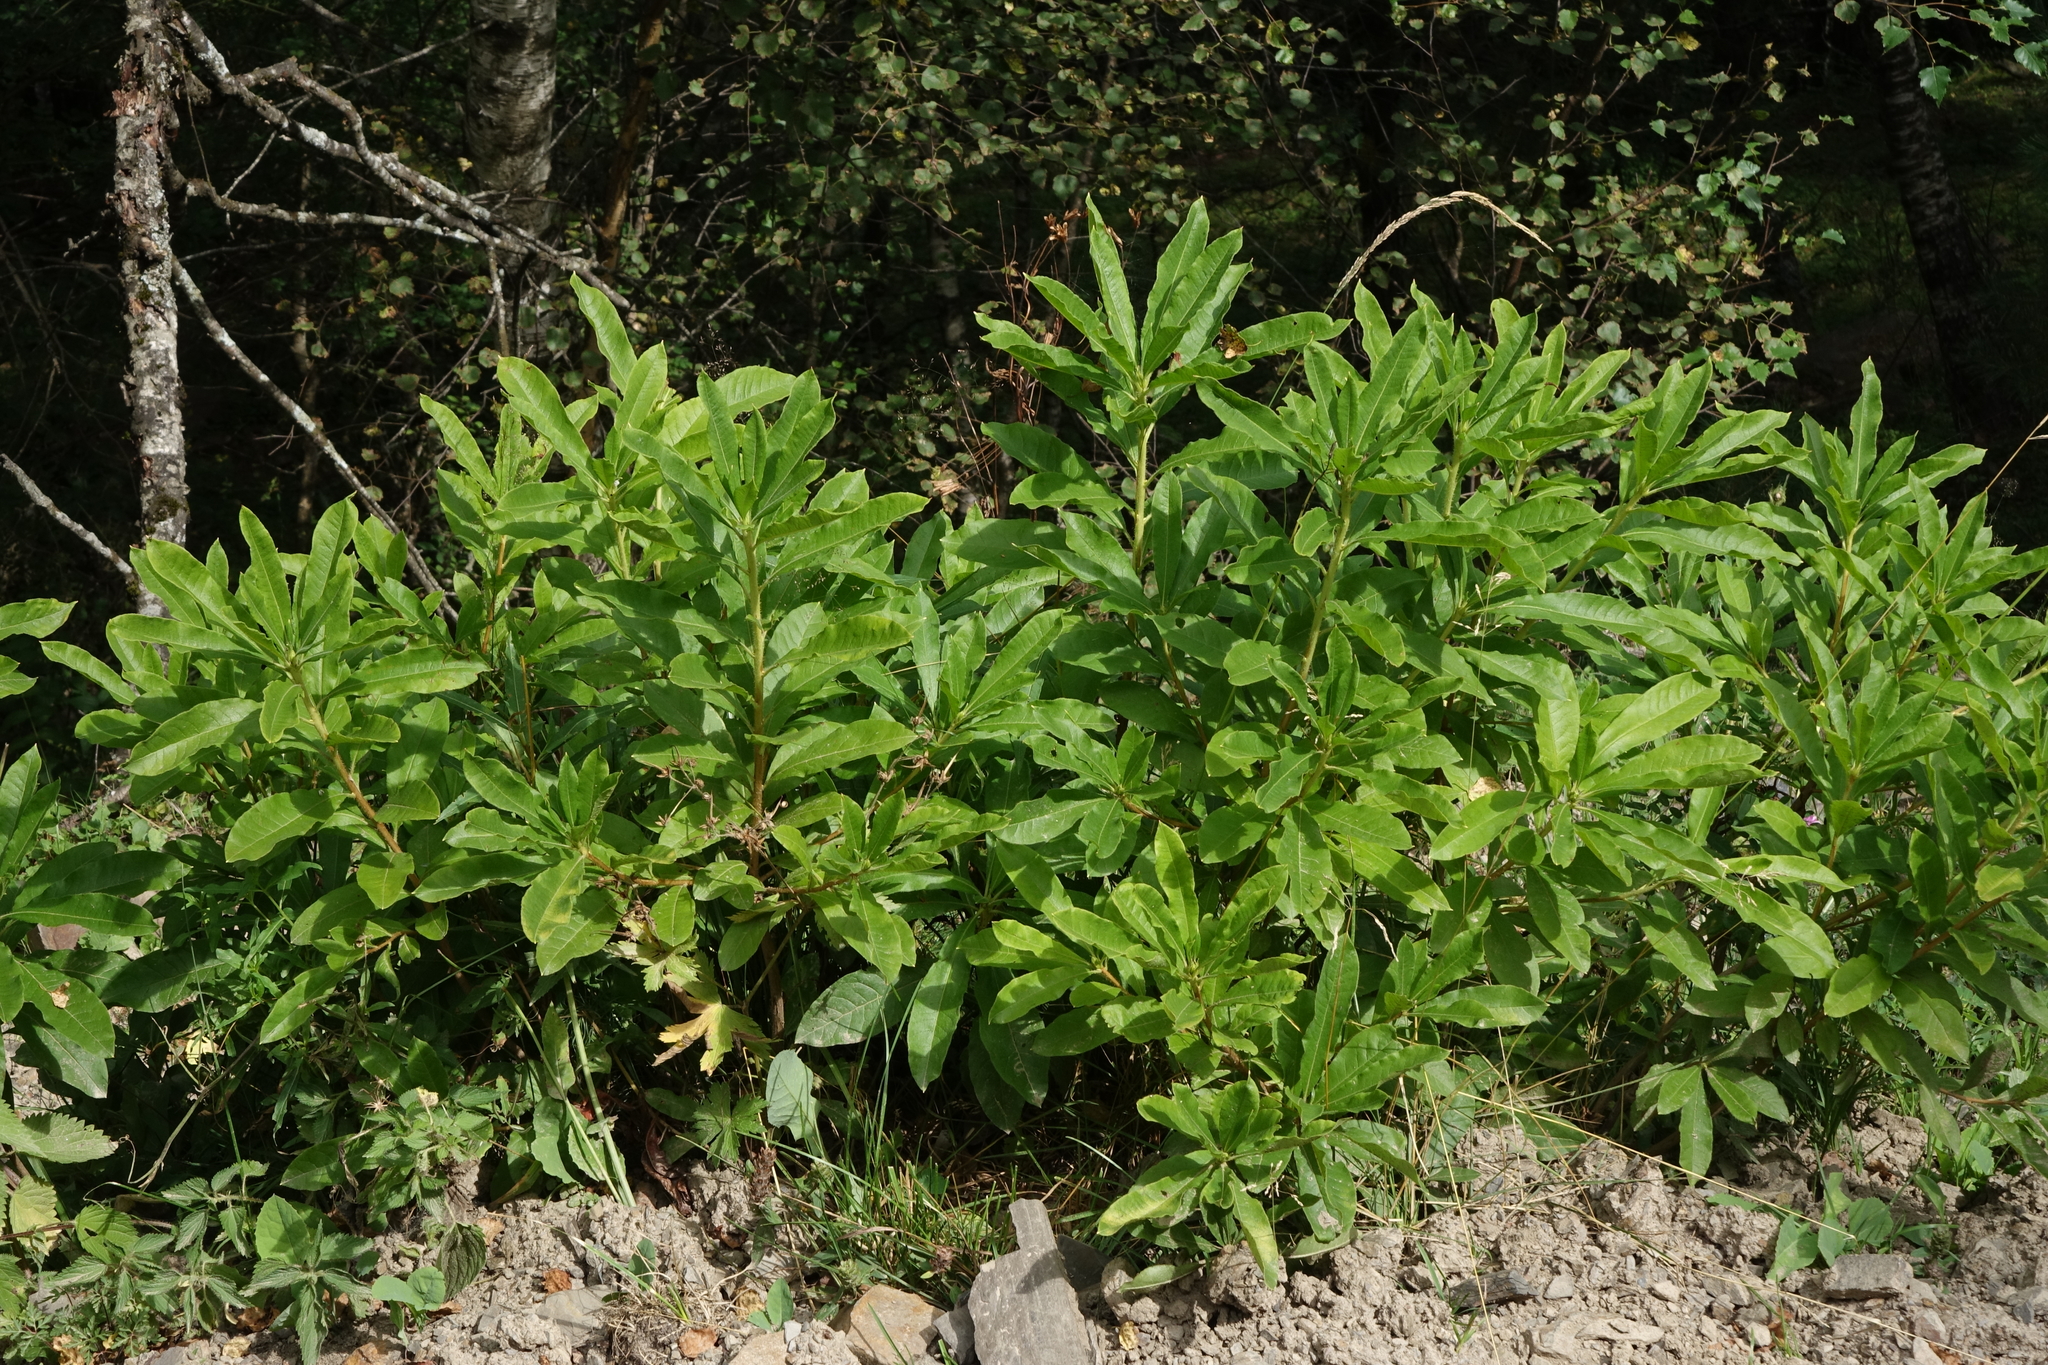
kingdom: Plantae
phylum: Tracheophyta
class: Magnoliopsida
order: Ericales
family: Ericaceae
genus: Rhododendron
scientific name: Rhododendron luteum
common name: Yellow azalea
